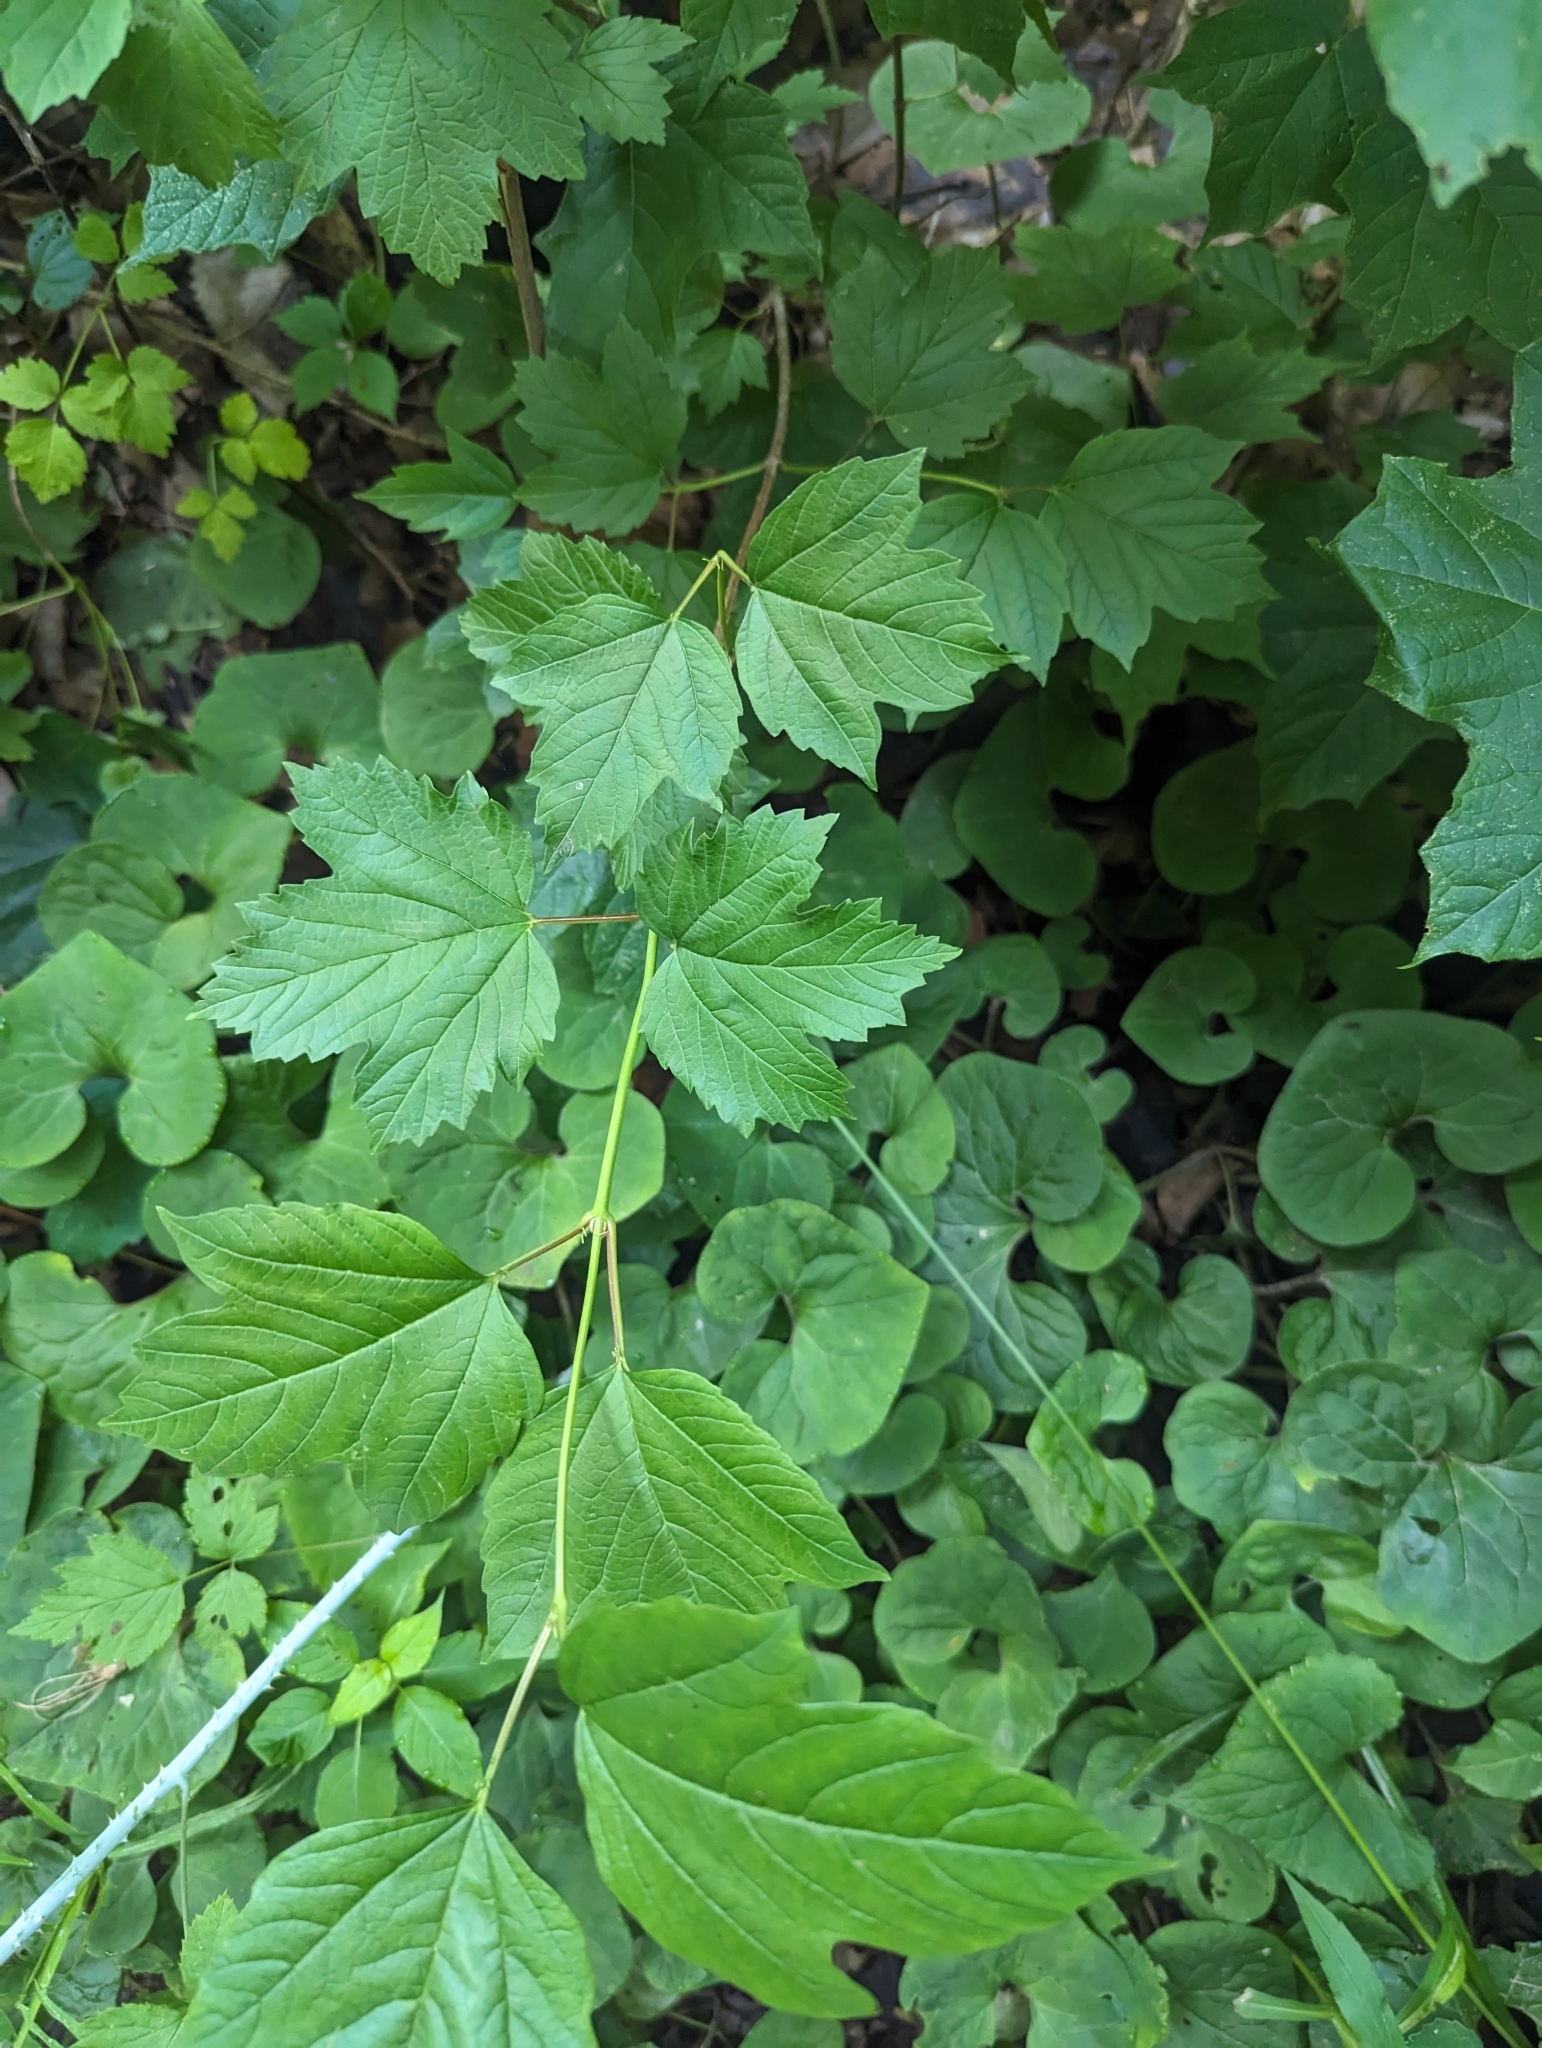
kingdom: Plantae
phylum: Tracheophyta
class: Magnoliopsida
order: Dipsacales
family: Viburnaceae
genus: Viburnum
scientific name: Viburnum opulus
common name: Guelder-rose
